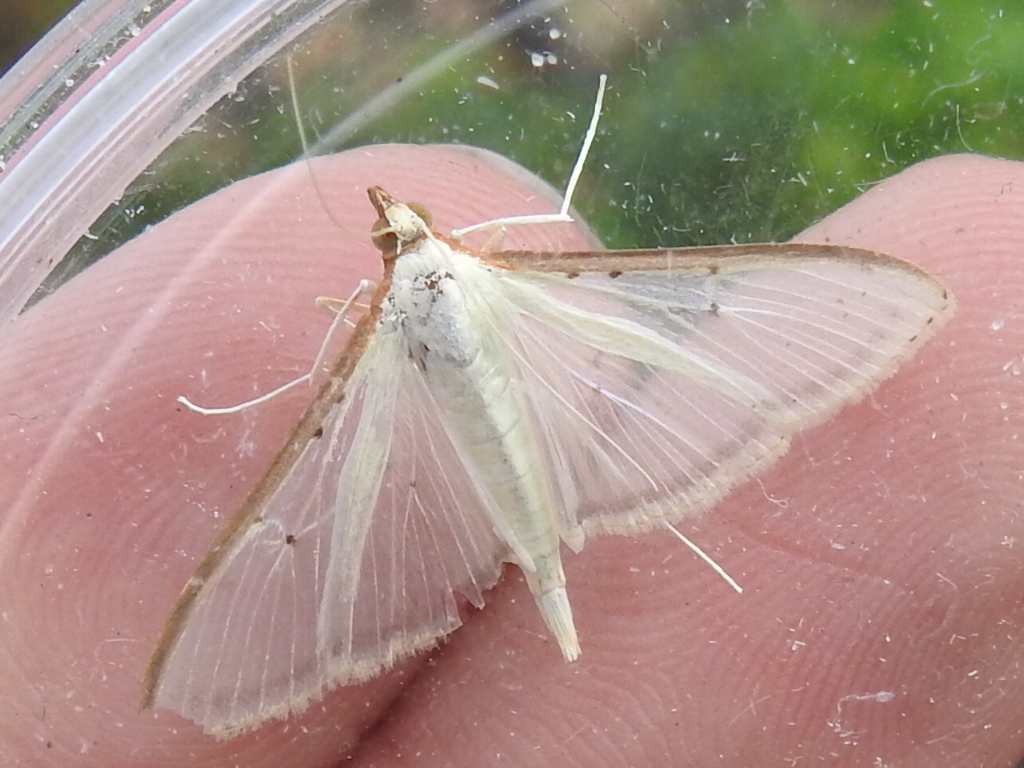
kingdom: Animalia
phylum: Arthropoda
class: Insecta
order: Lepidoptera
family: Crambidae
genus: Palpita
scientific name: Palpita quadristigmalis
